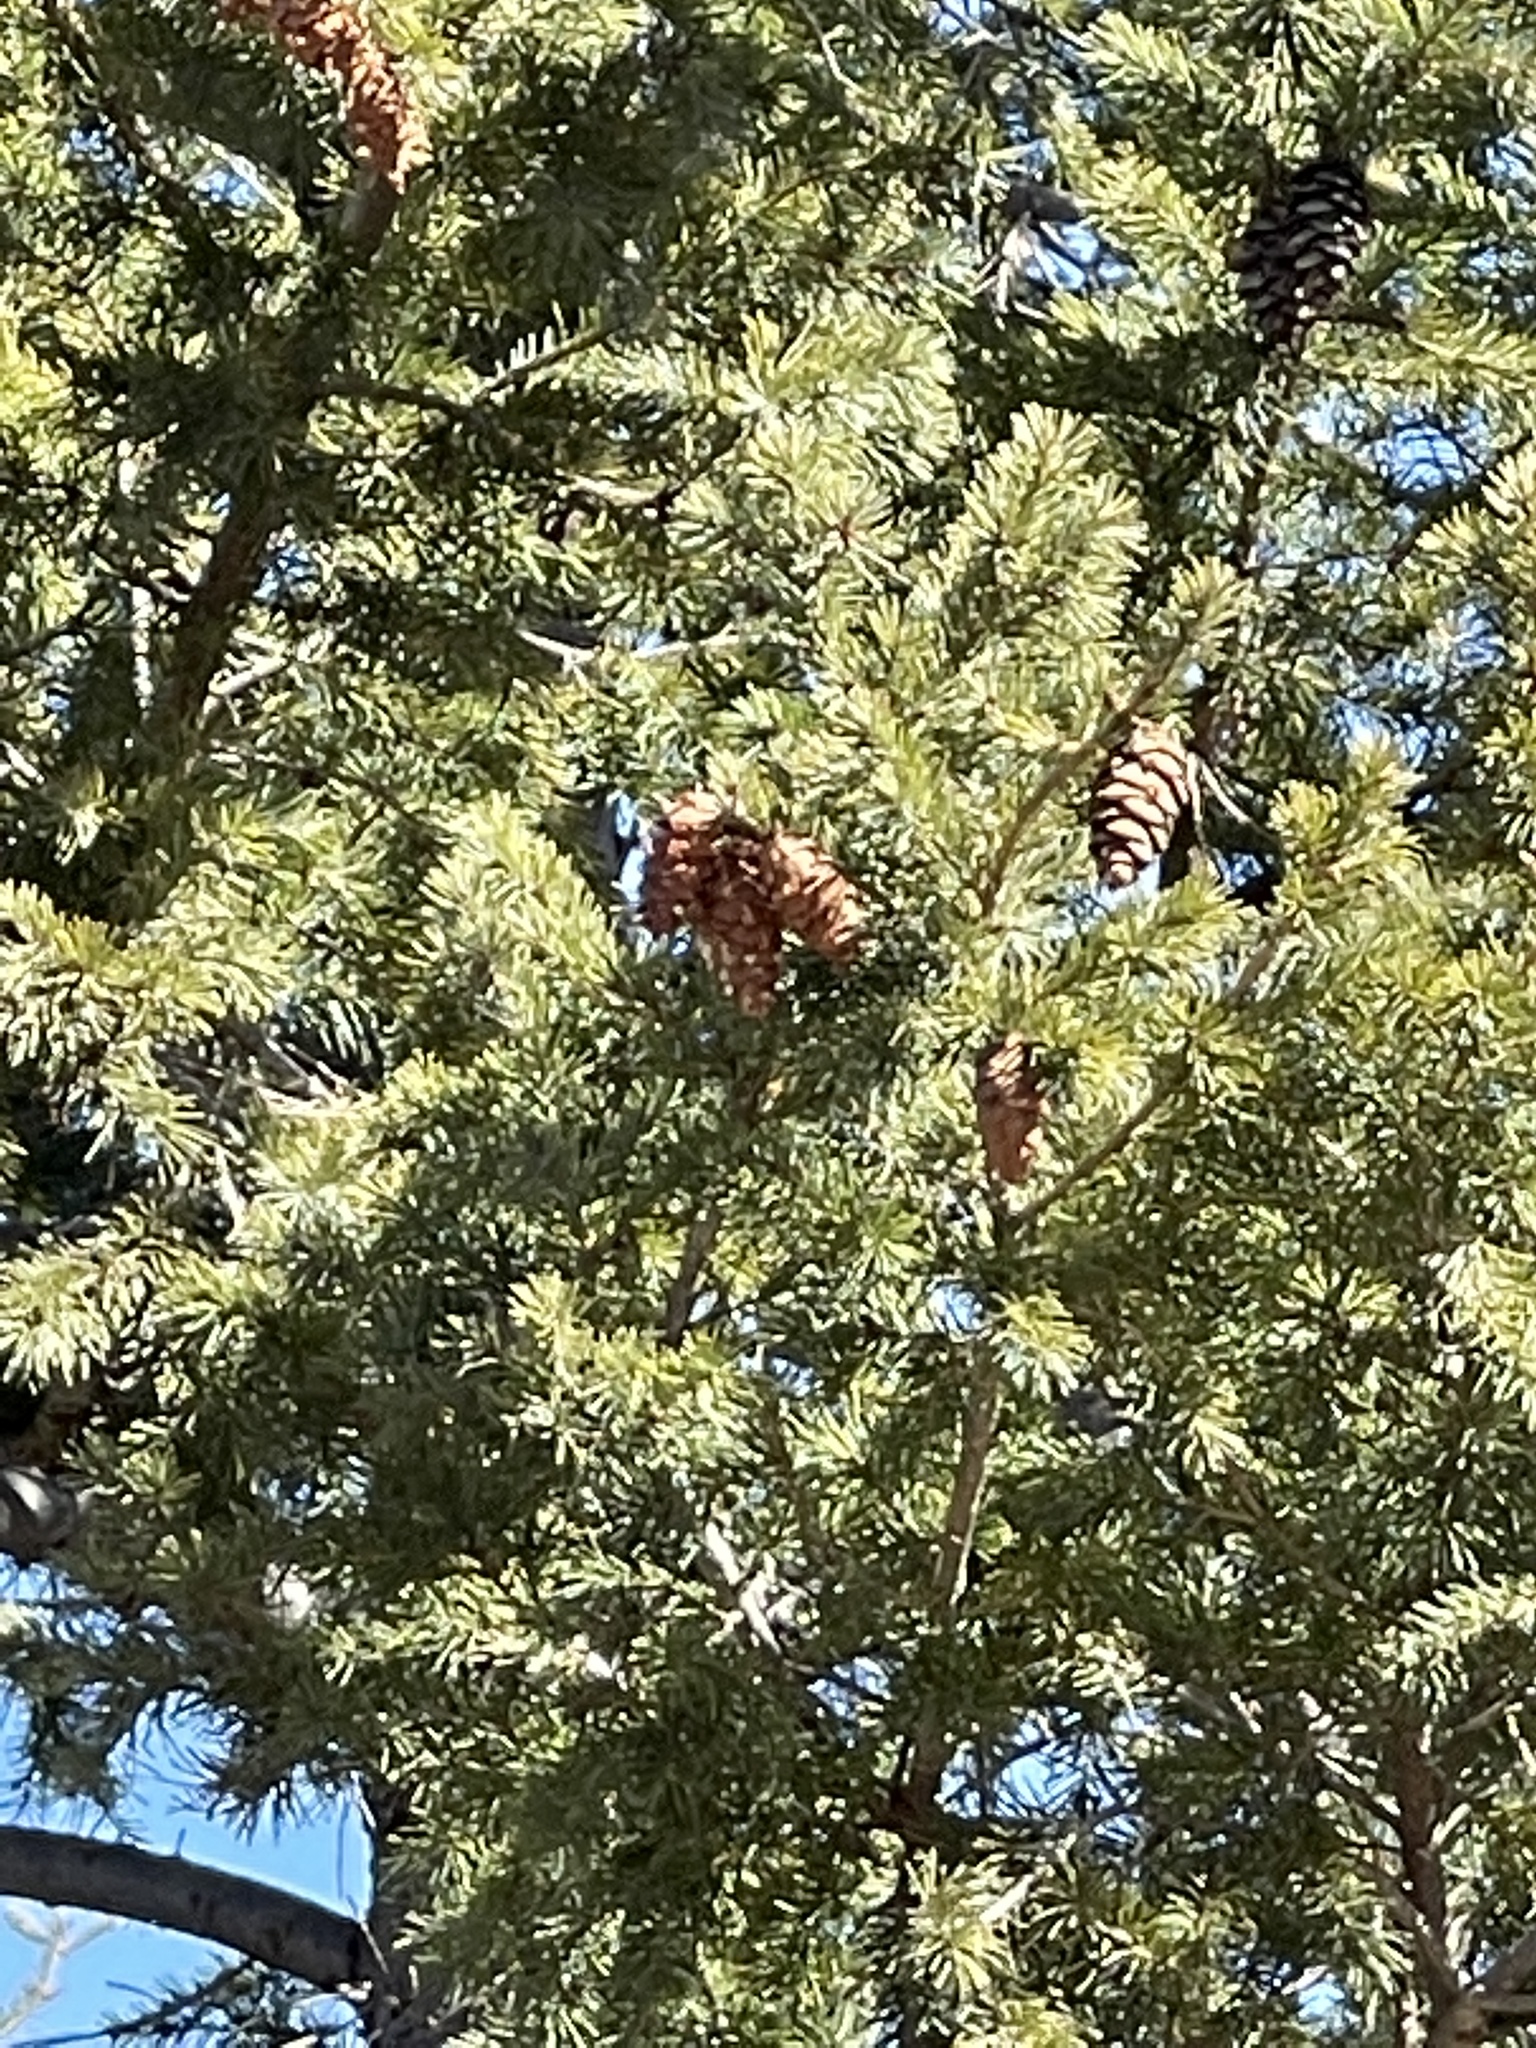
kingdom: Plantae
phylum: Tracheophyta
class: Pinopsida
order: Pinales
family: Pinaceae
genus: Pseudotsuga
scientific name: Pseudotsuga menziesii
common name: Douglas fir
